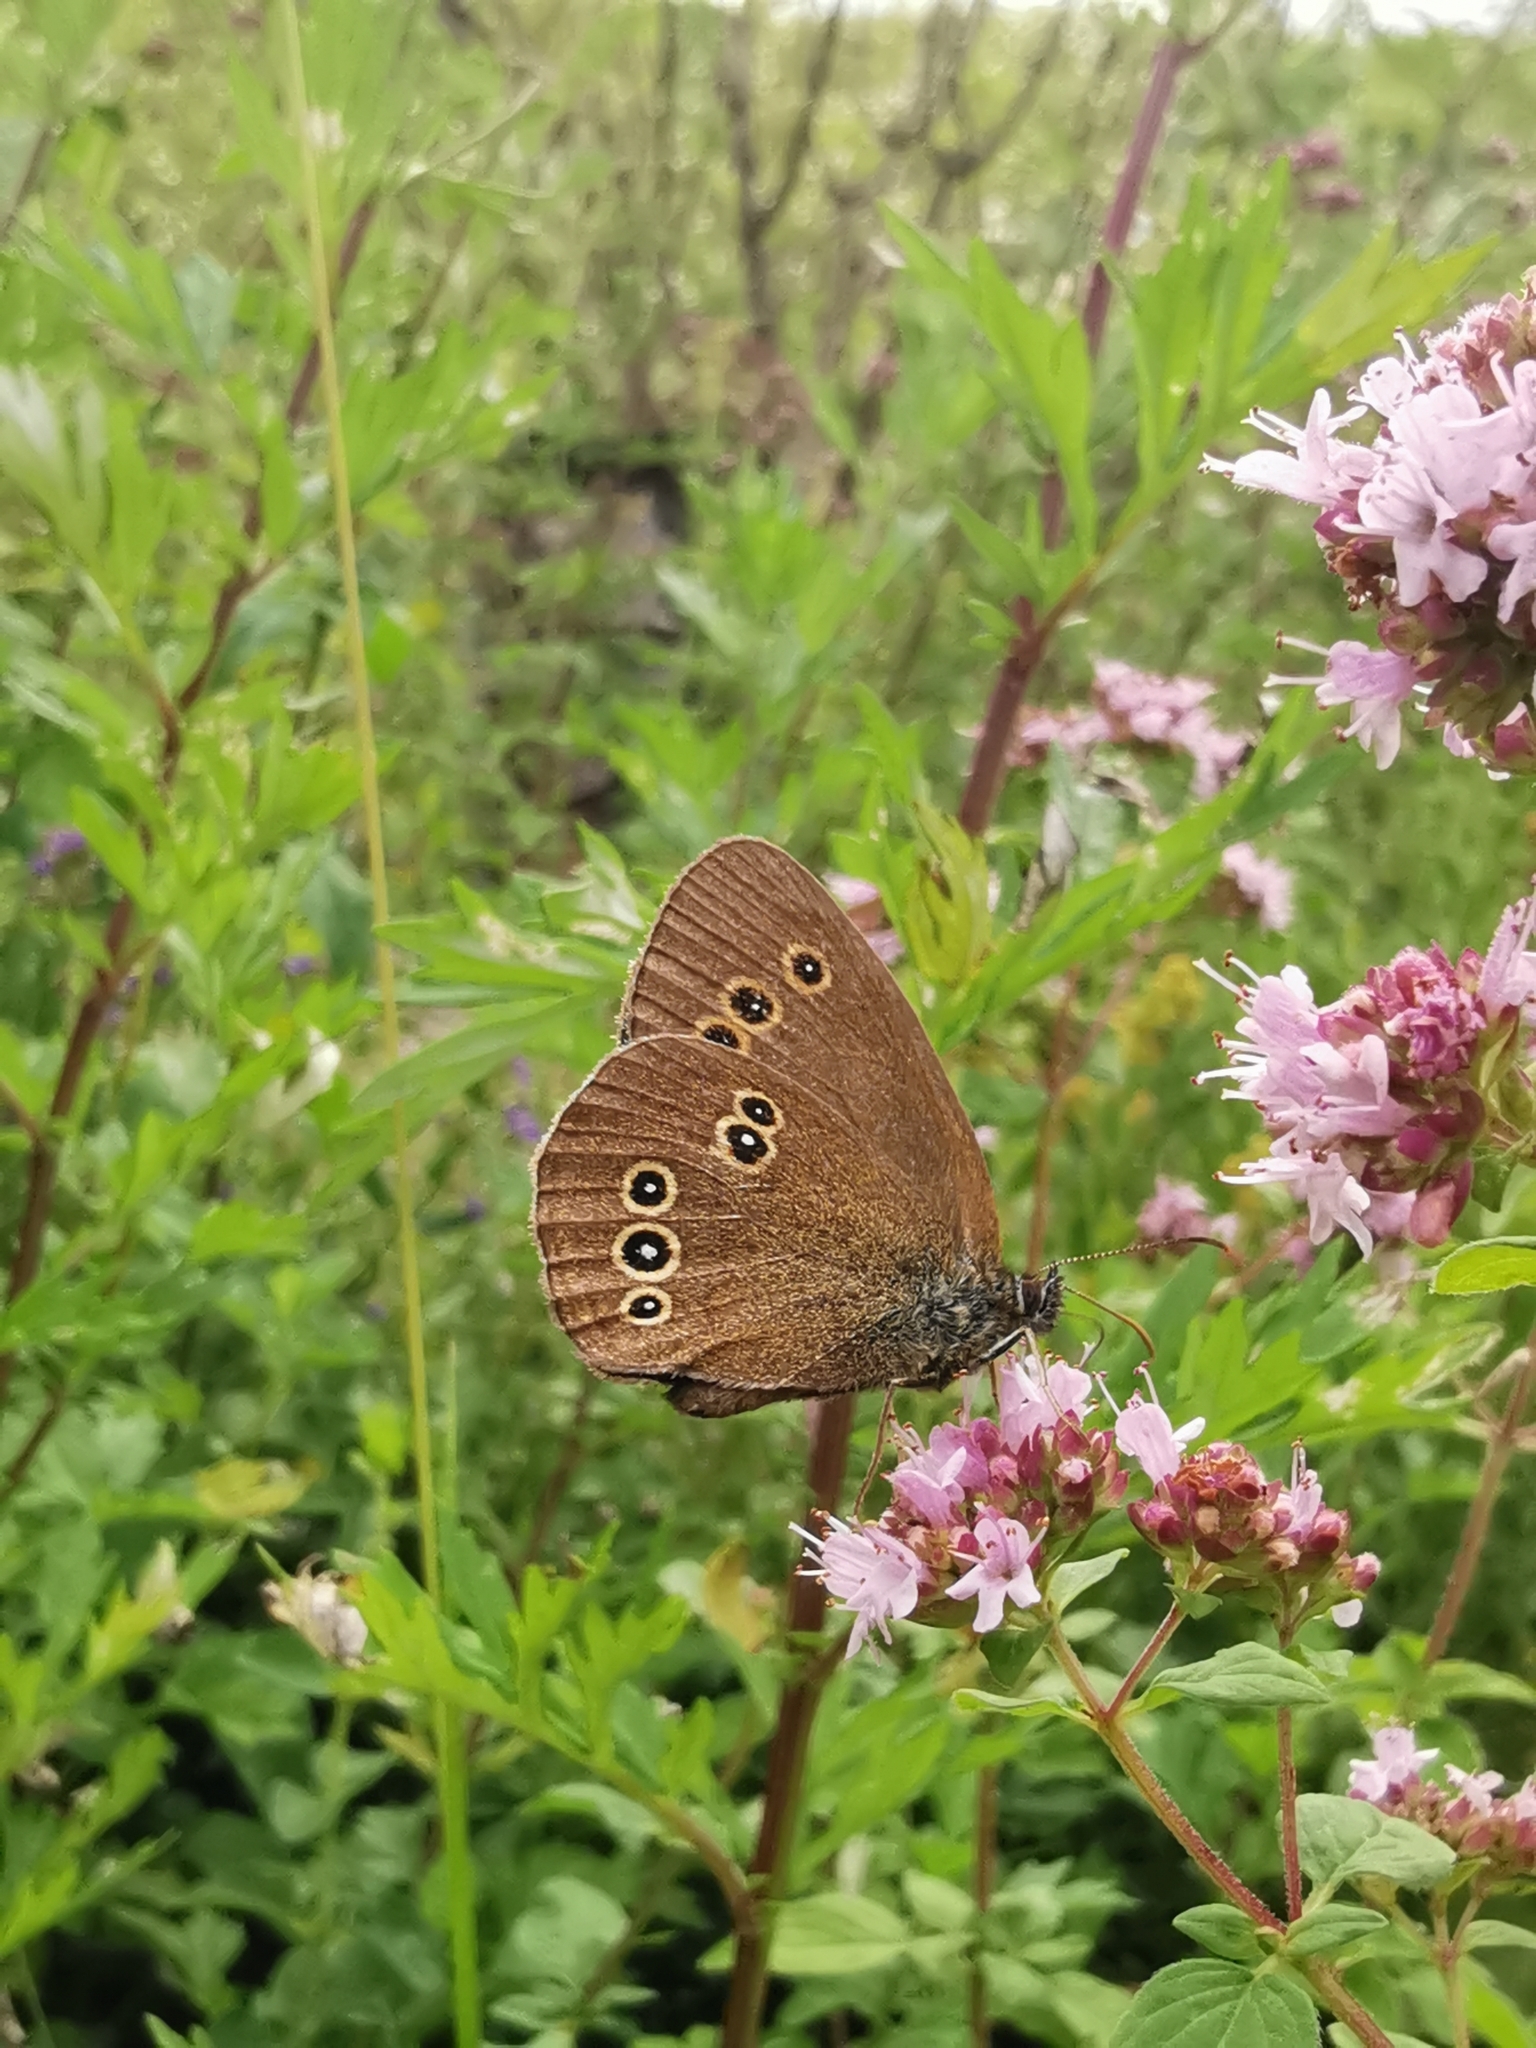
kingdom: Animalia
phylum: Arthropoda
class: Insecta
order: Lepidoptera
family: Nymphalidae
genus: Aphantopus
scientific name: Aphantopus hyperantus
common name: Ringlet
